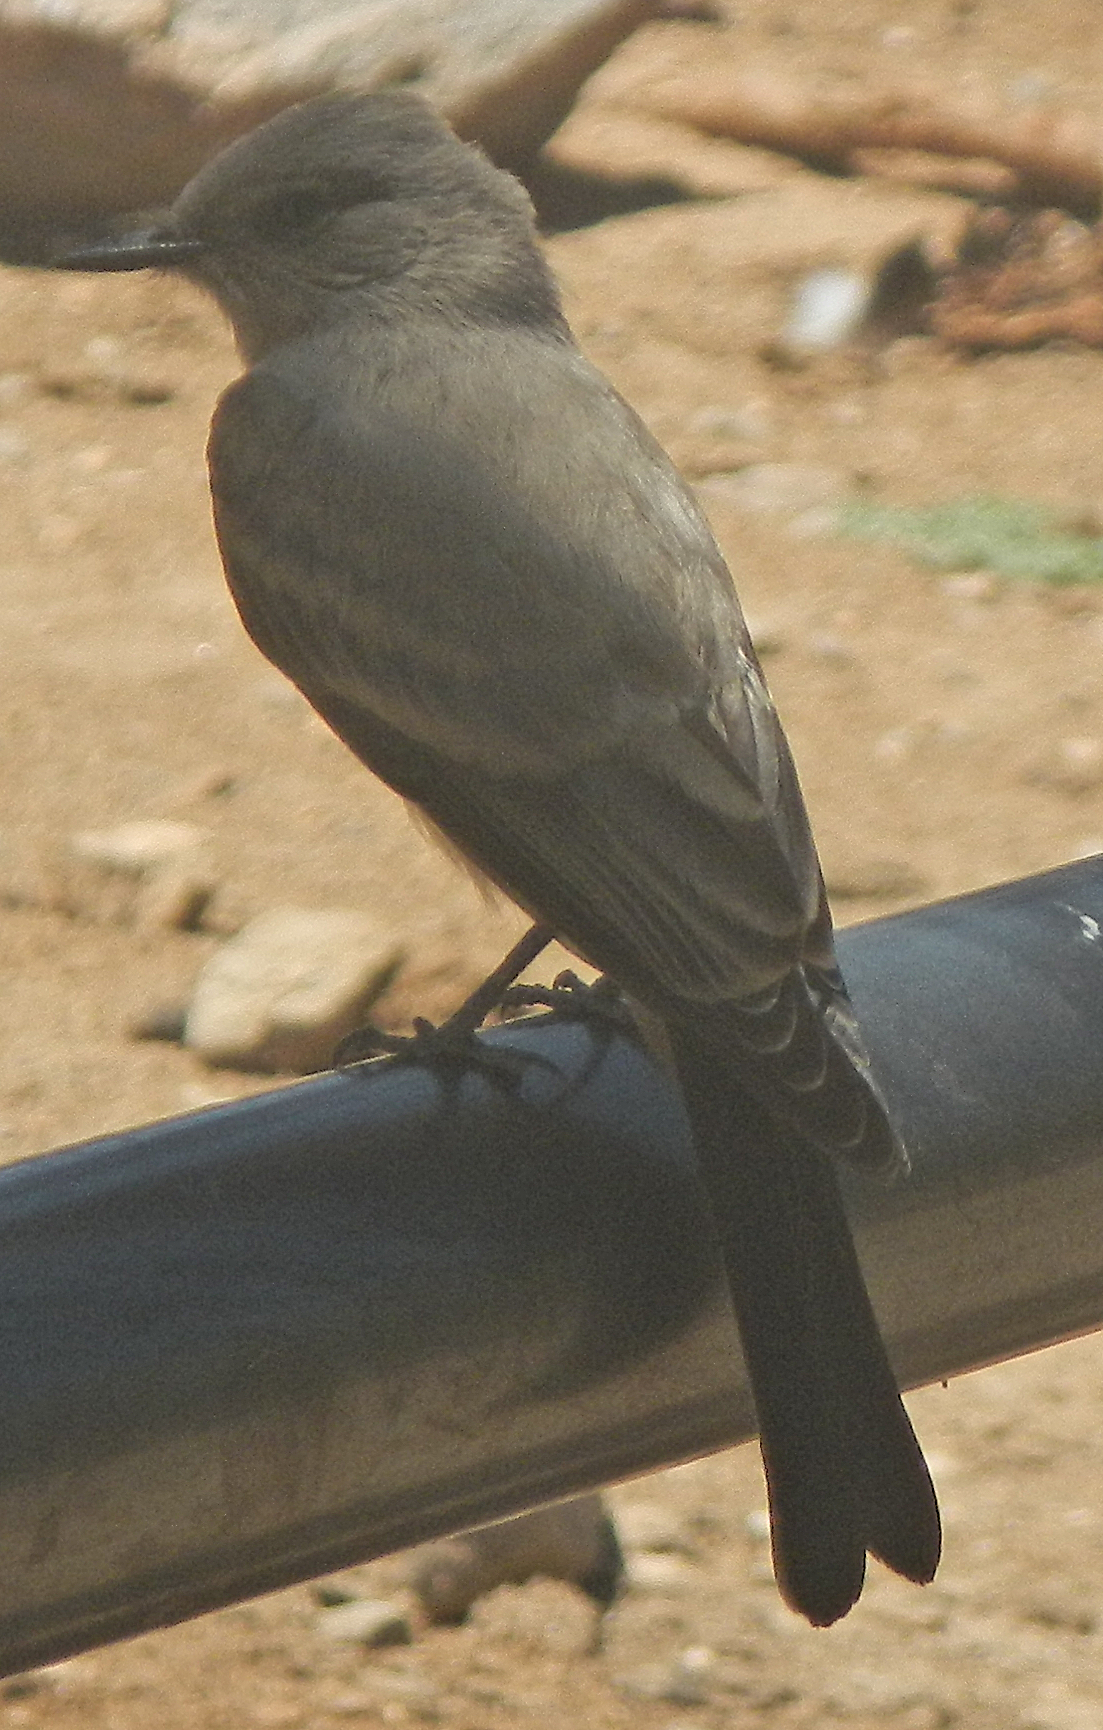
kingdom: Animalia
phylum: Chordata
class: Aves
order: Passeriformes
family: Tyrannidae
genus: Sayornis
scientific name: Sayornis saya
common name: Say's phoebe
